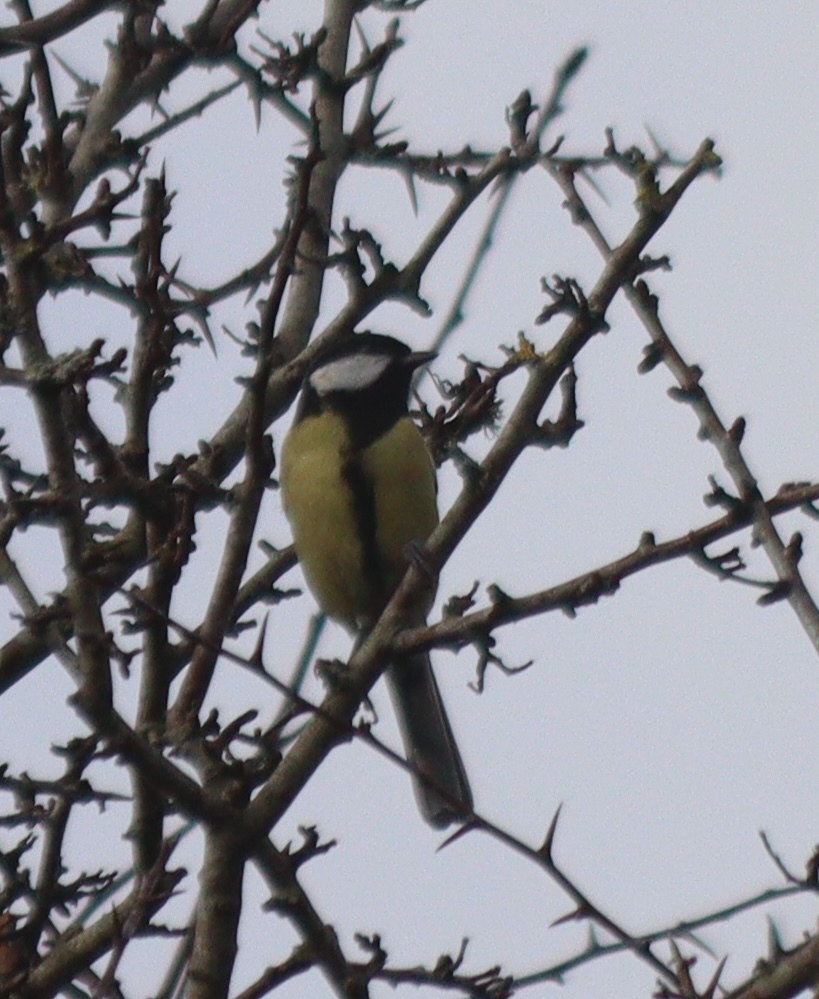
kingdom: Animalia
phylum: Chordata
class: Aves
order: Passeriformes
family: Paridae
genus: Parus
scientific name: Parus major
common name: Great tit
